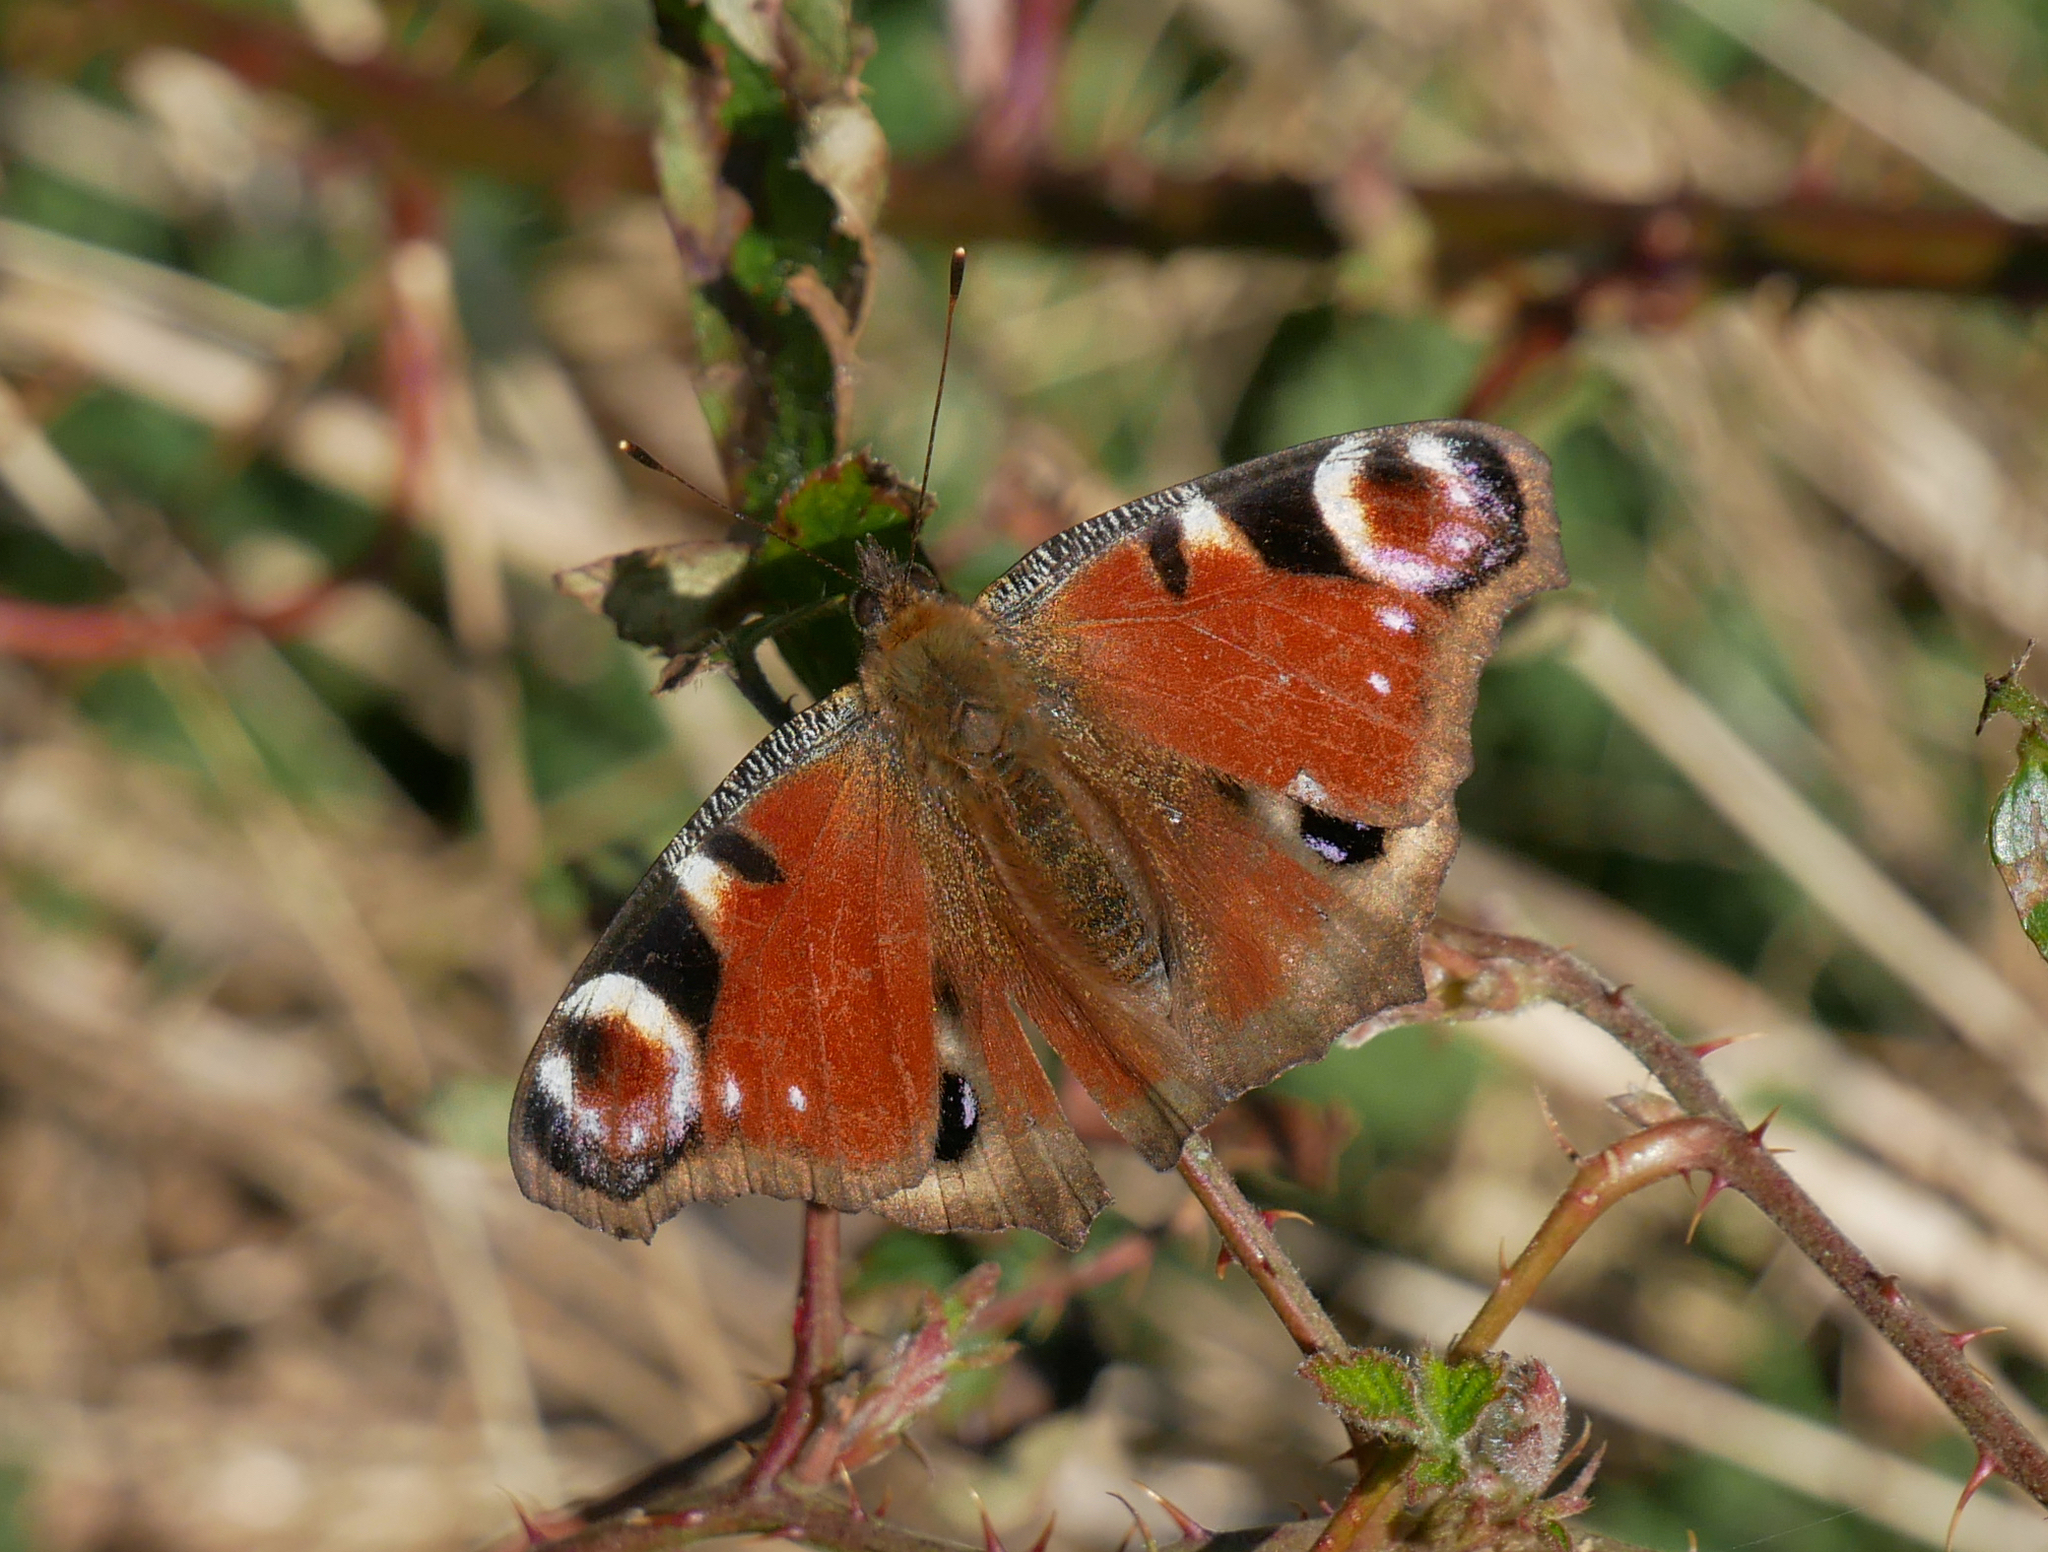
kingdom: Animalia
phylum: Arthropoda
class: Insecta
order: Lepidoptera
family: Nymphalidae
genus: Aglais
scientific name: Aglais io
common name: Peacock
